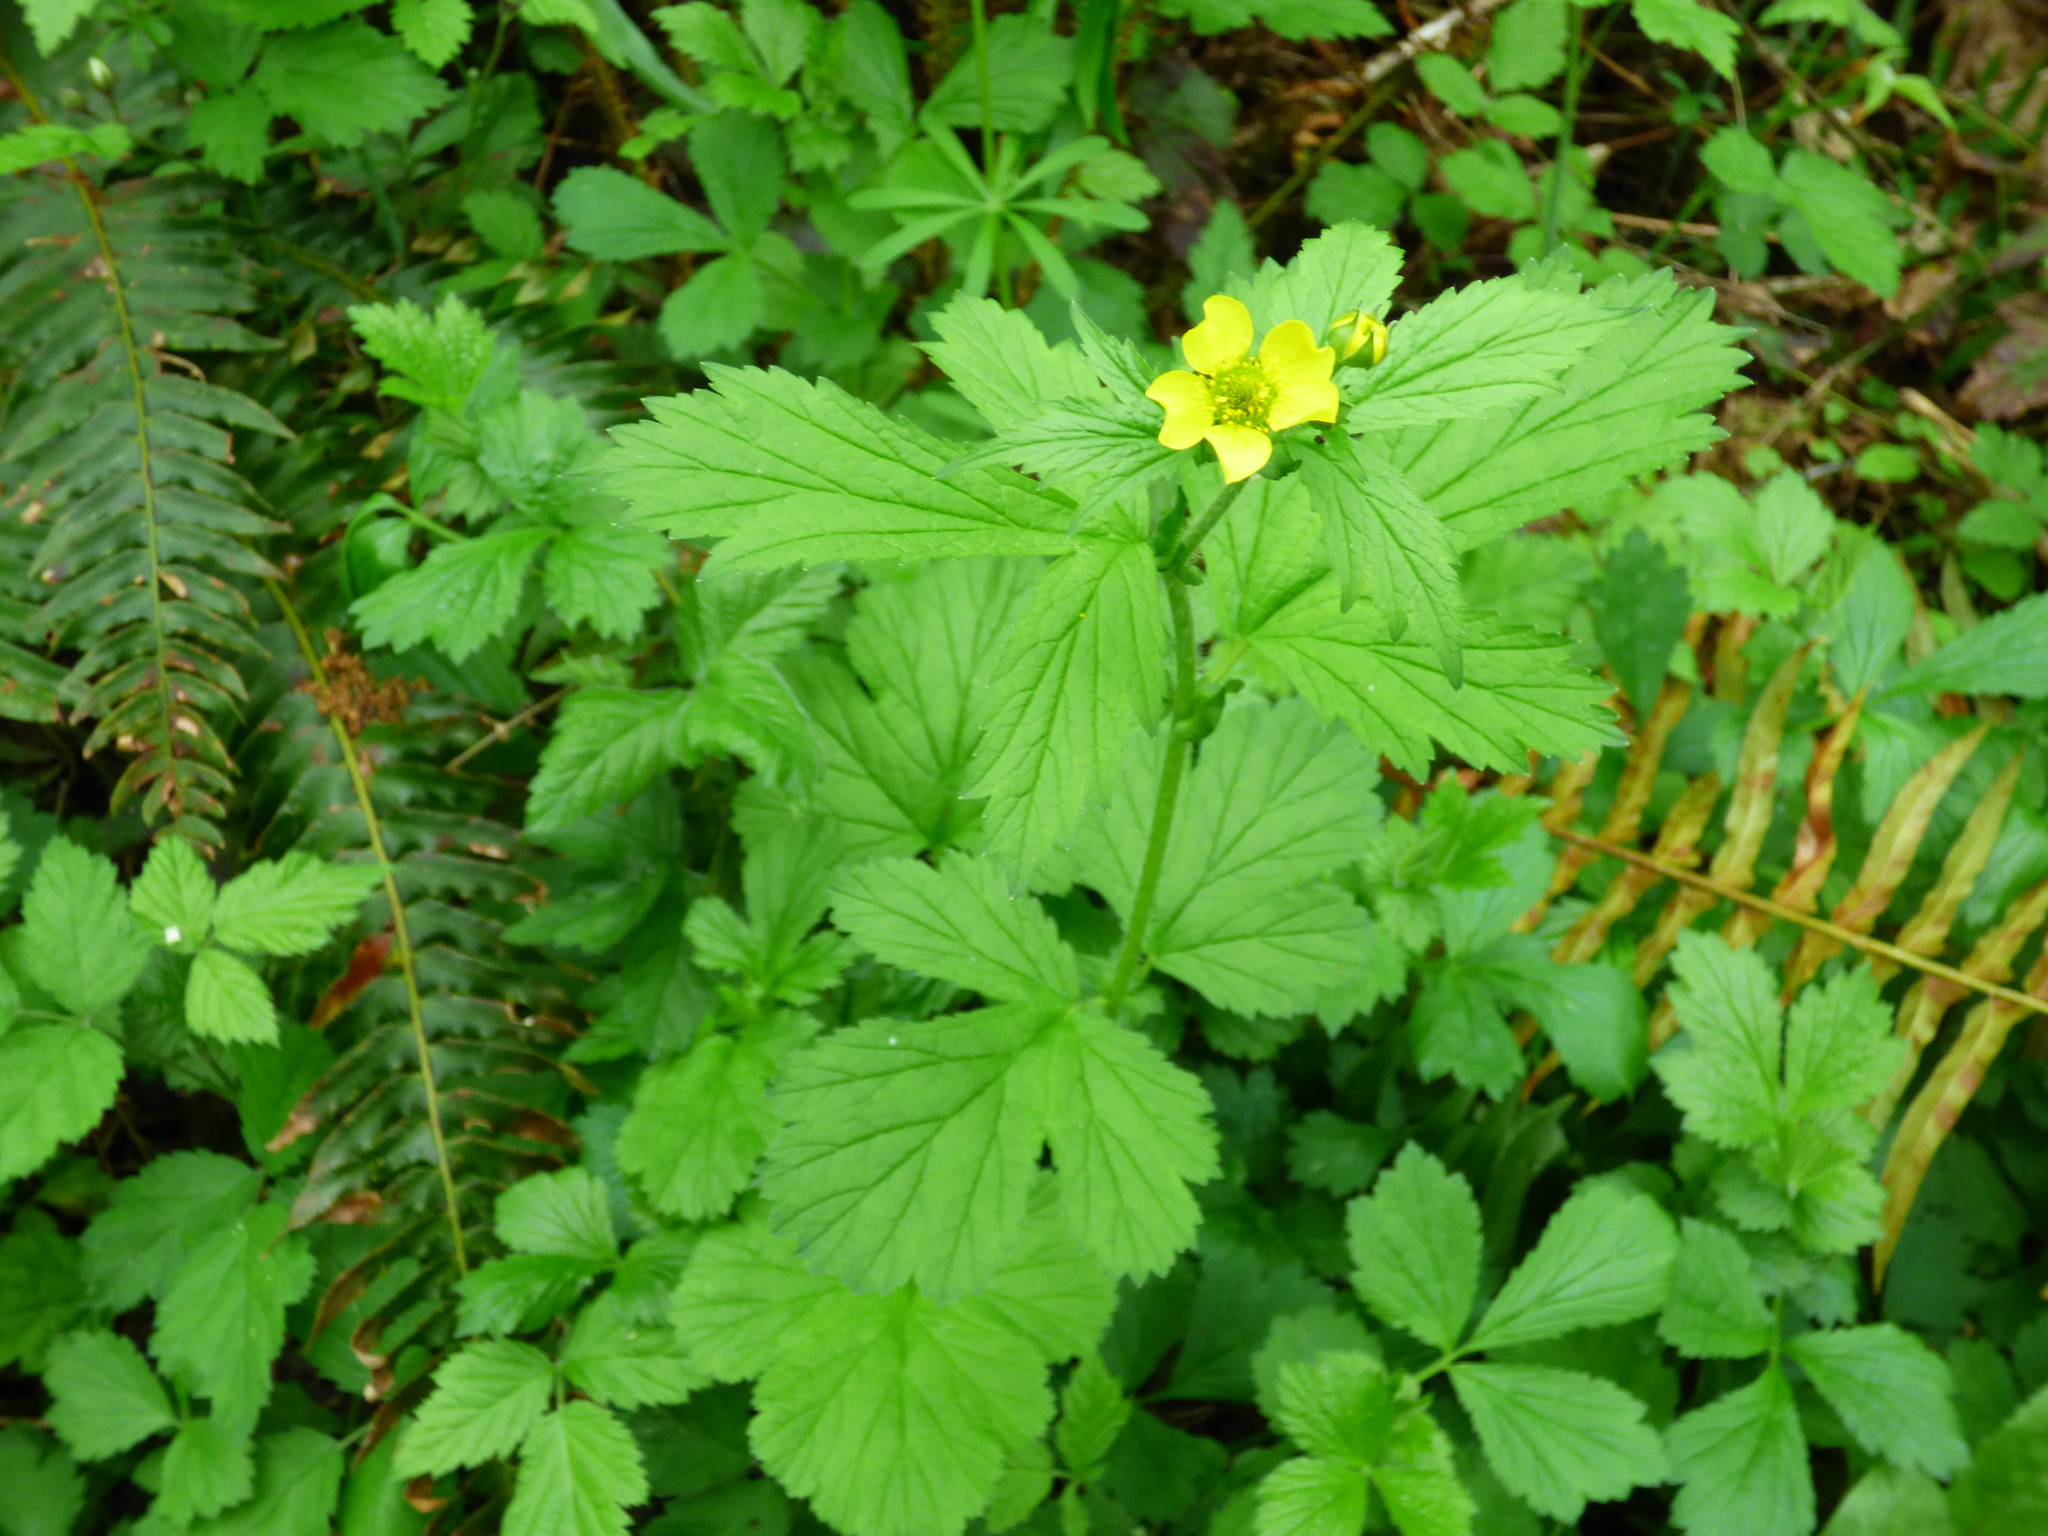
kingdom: Plantae
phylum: Tracheophyta
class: Magnoliopsida
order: Rosales
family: Rosaceae
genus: Geum
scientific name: Geum macrophyllum
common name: Large-leaved avens
